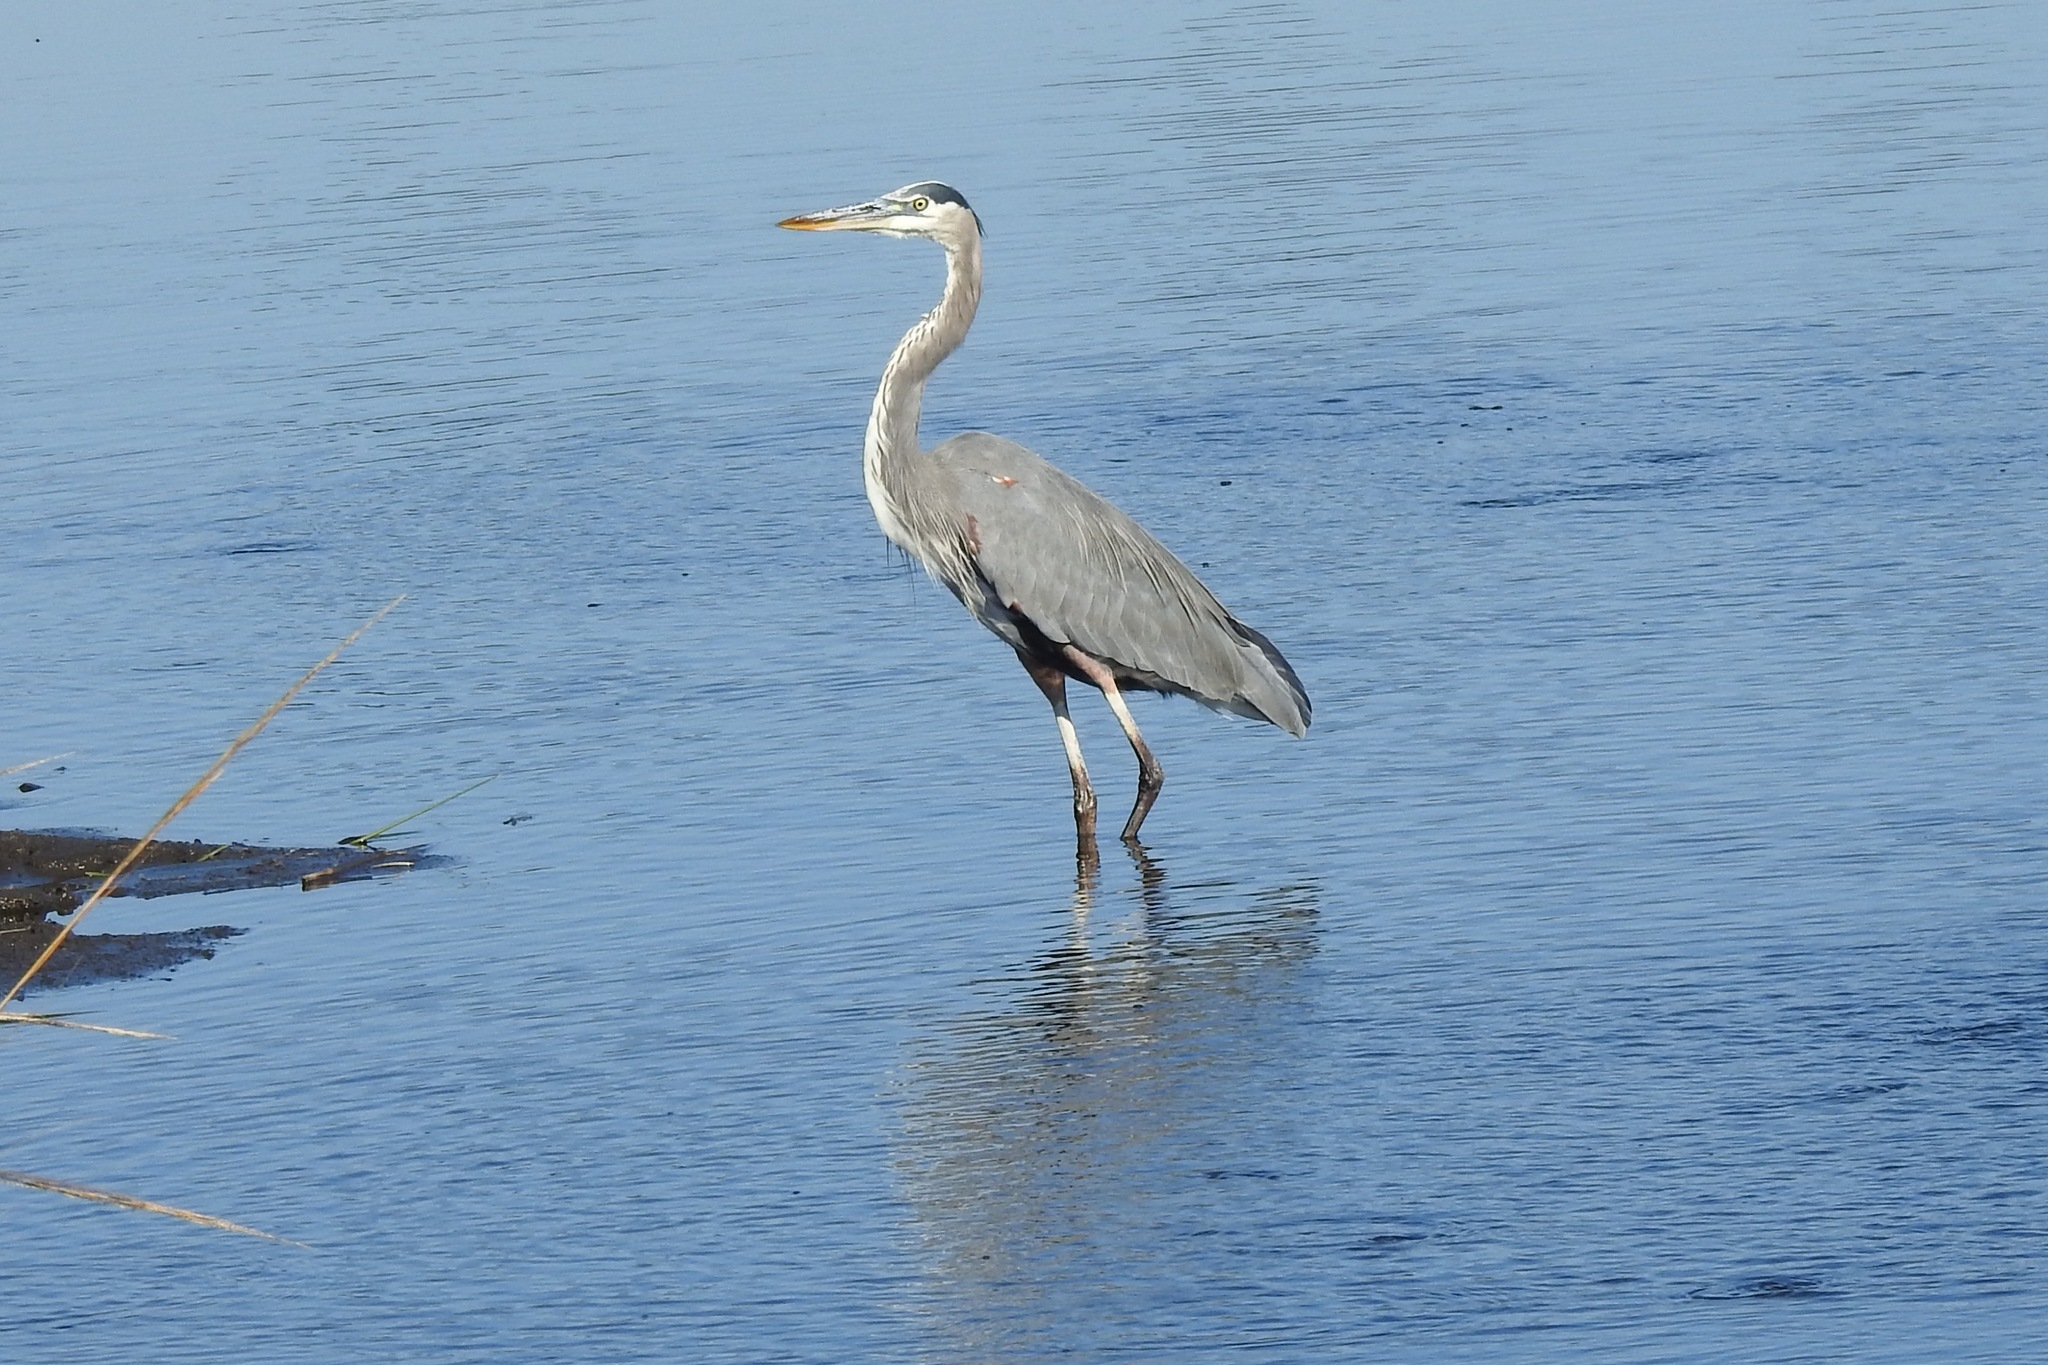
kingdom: Animalia
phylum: Chordata
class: Aves
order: Pelecaniformes
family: Ardeidae
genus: Ardea
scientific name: Ardea herodias
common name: Great blue heron
